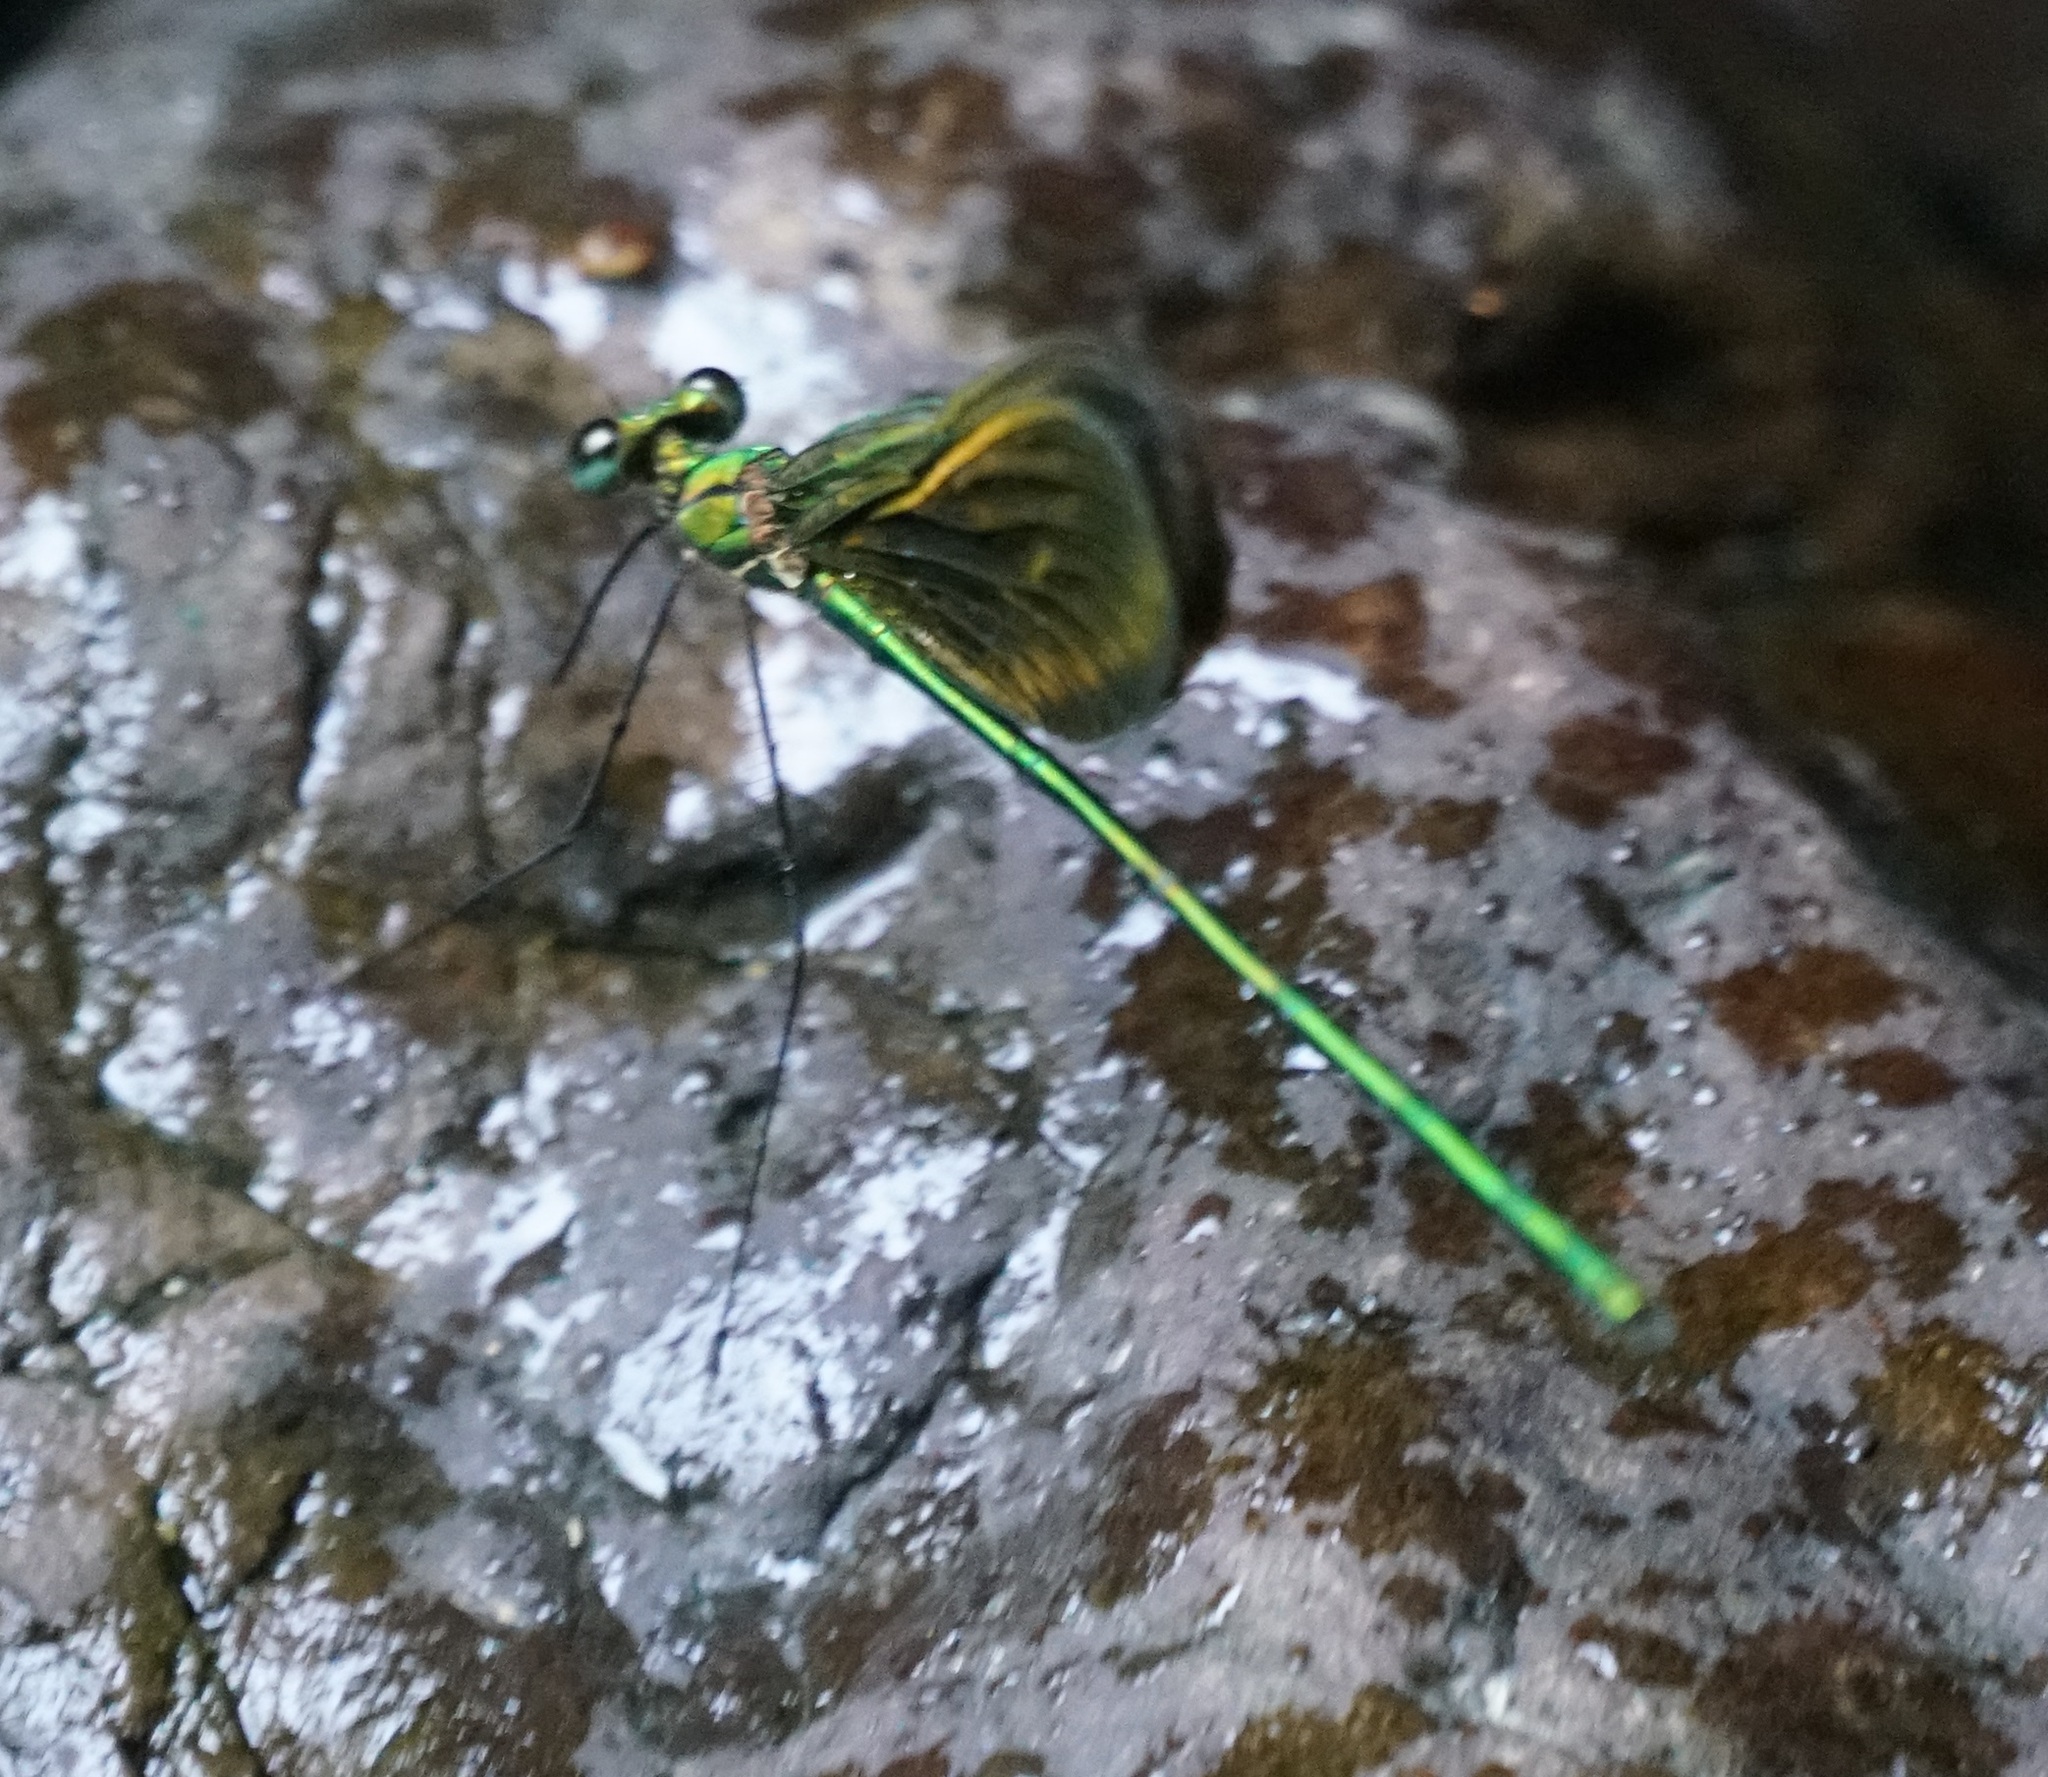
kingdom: Animalia
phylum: Arthropoda
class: Insecta
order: Odonata
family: Calopterygidae
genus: Neurobasis
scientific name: Neurobasis longipes
